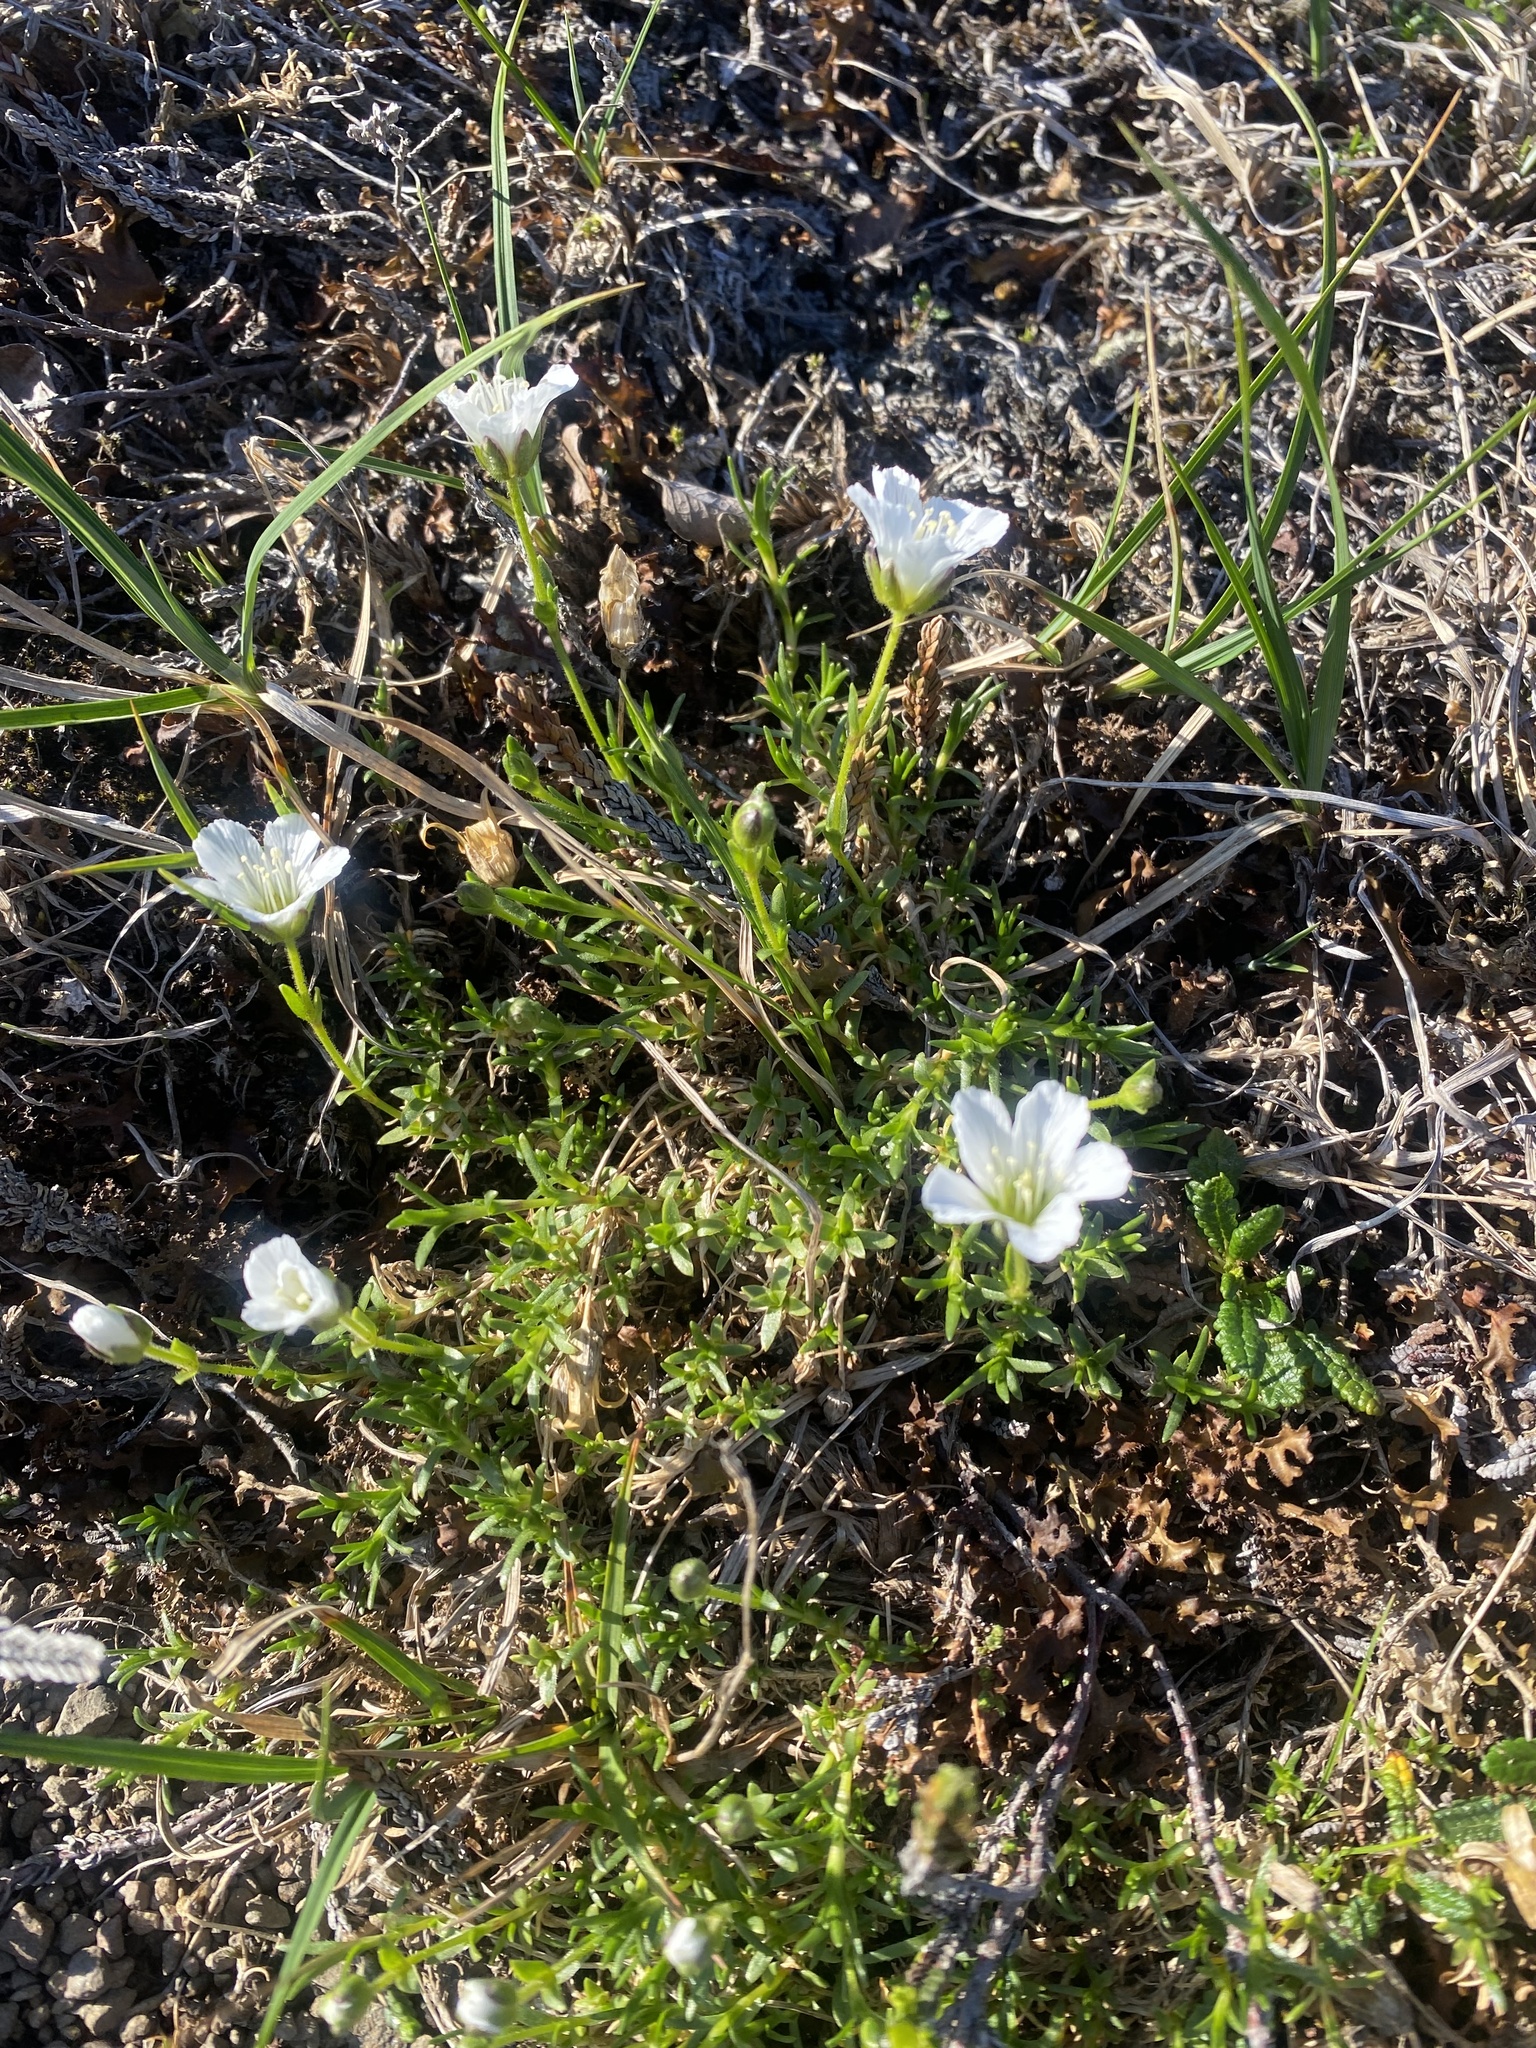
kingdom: Plantae
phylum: Tracheophyta
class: Magnoliopsida
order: Caryophyllales
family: Caryophyllaceae
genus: Cherleria
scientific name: Cherleria arctica
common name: Arctic sandwort
